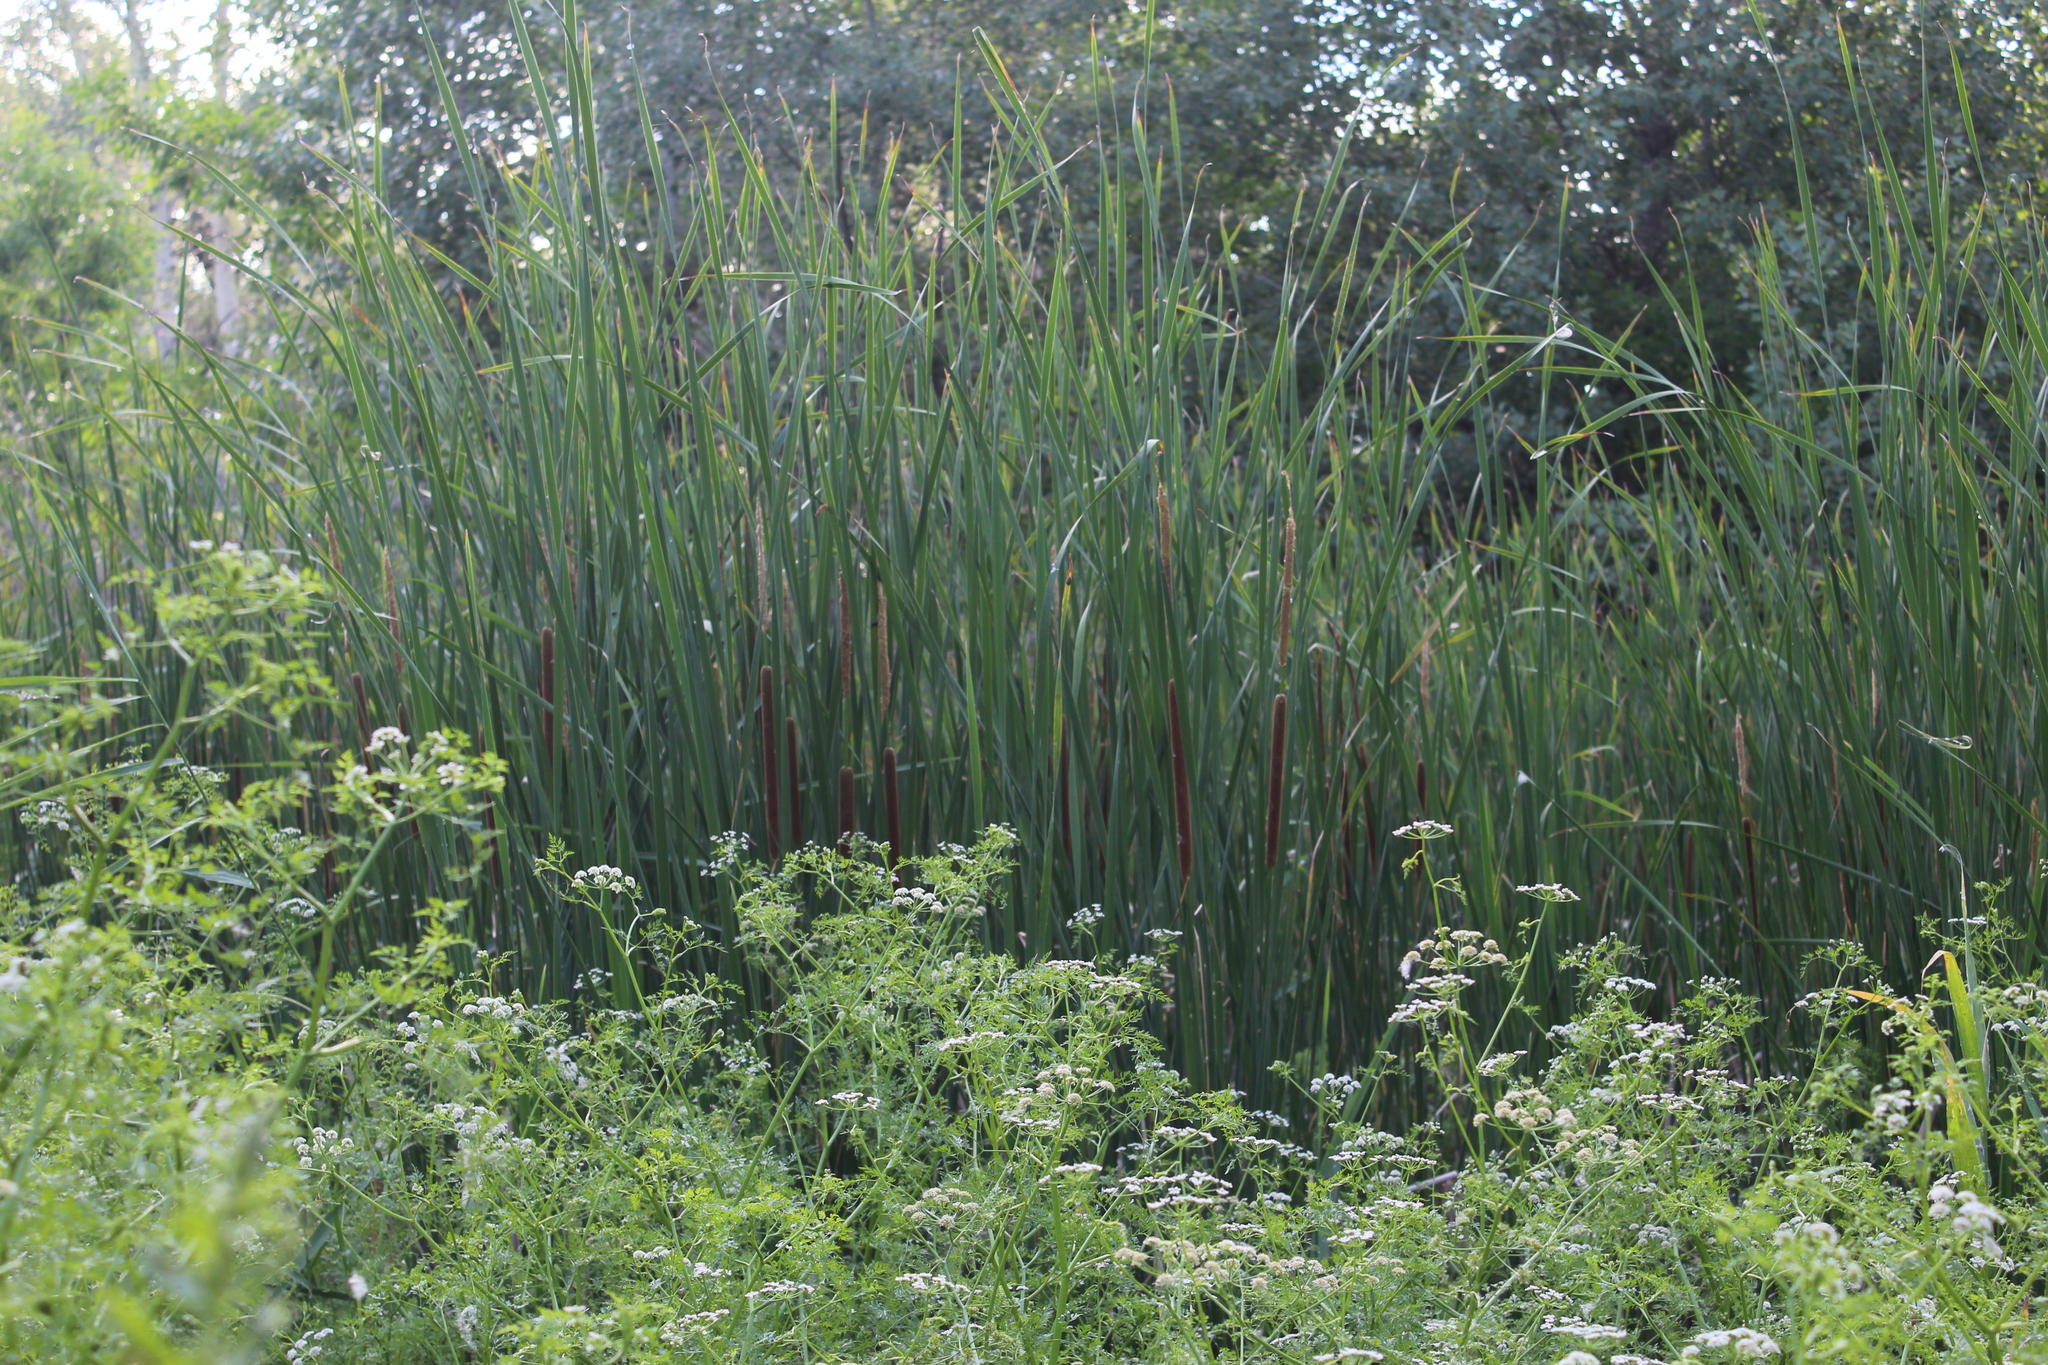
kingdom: Plantae
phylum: Tracheophyta
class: Liliopsida
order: Poales
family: Typhaceae
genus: Typha
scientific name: Typha angustifolia
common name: Lesser bulrush
